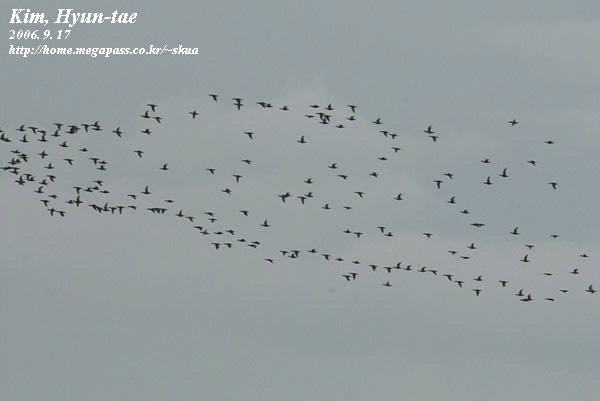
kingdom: Animalia
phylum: Chordata
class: Aves
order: Anseriformes
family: Anatidae
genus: Sibirionetta
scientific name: Sibirionetta formosa
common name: Baikal teal
